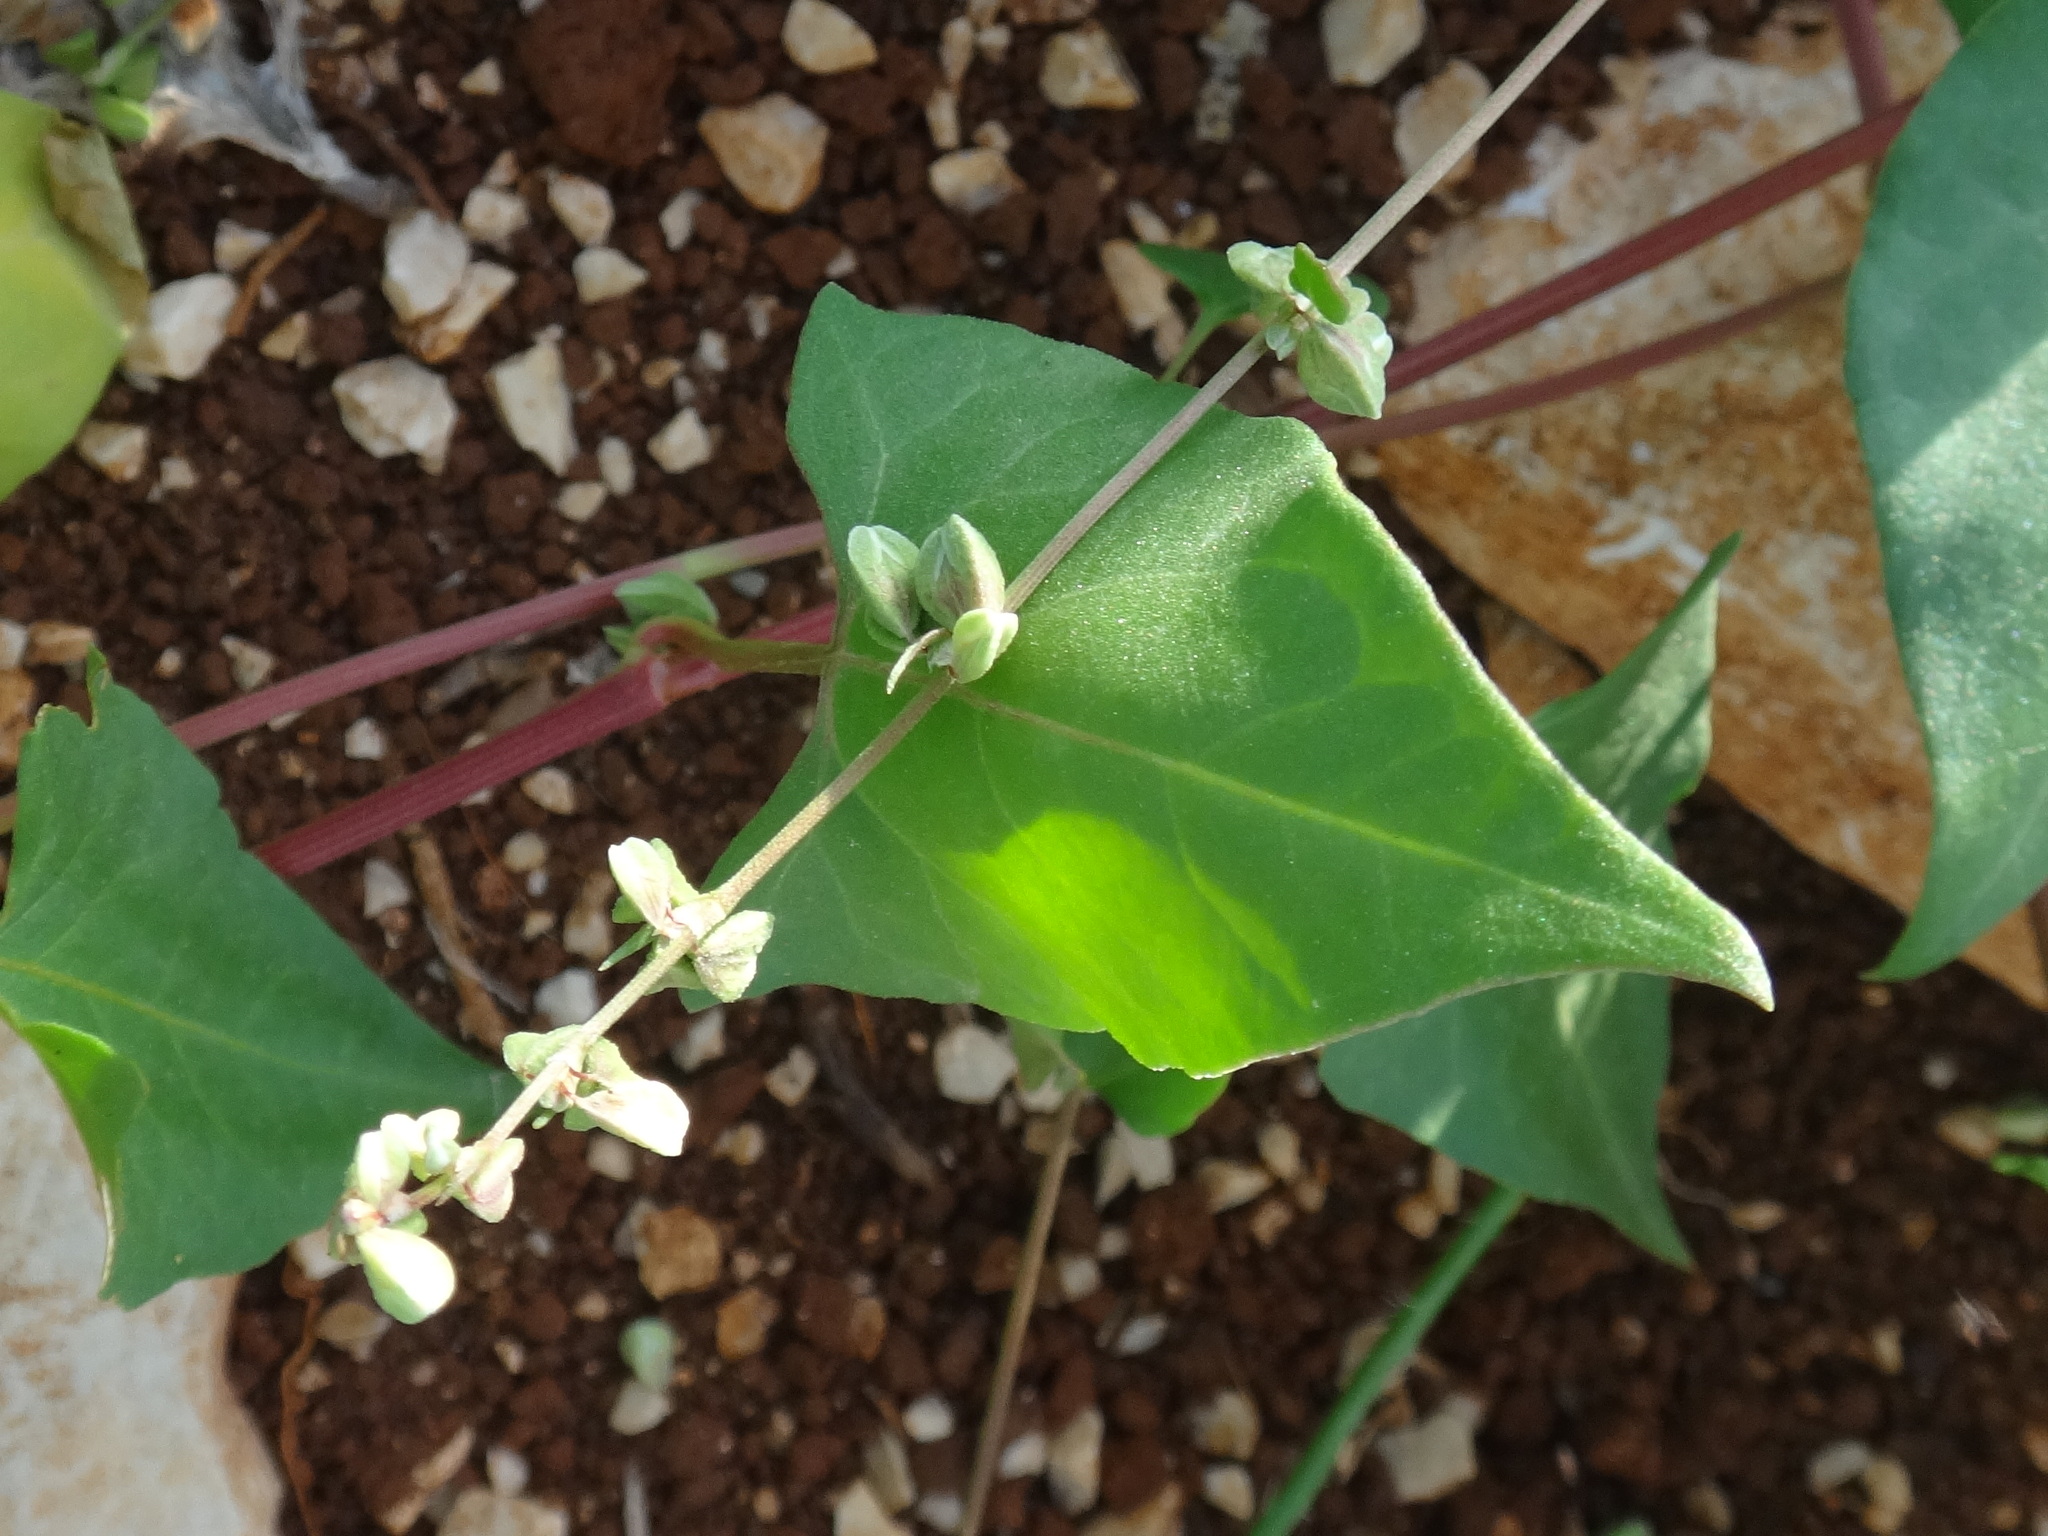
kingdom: Plantae
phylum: Tracheophyta
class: Magnoliopsida
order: Caryophyllales
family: Polygonaceae
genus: Fallopia
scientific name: Fallopia convolvulus
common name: Black bindweed
